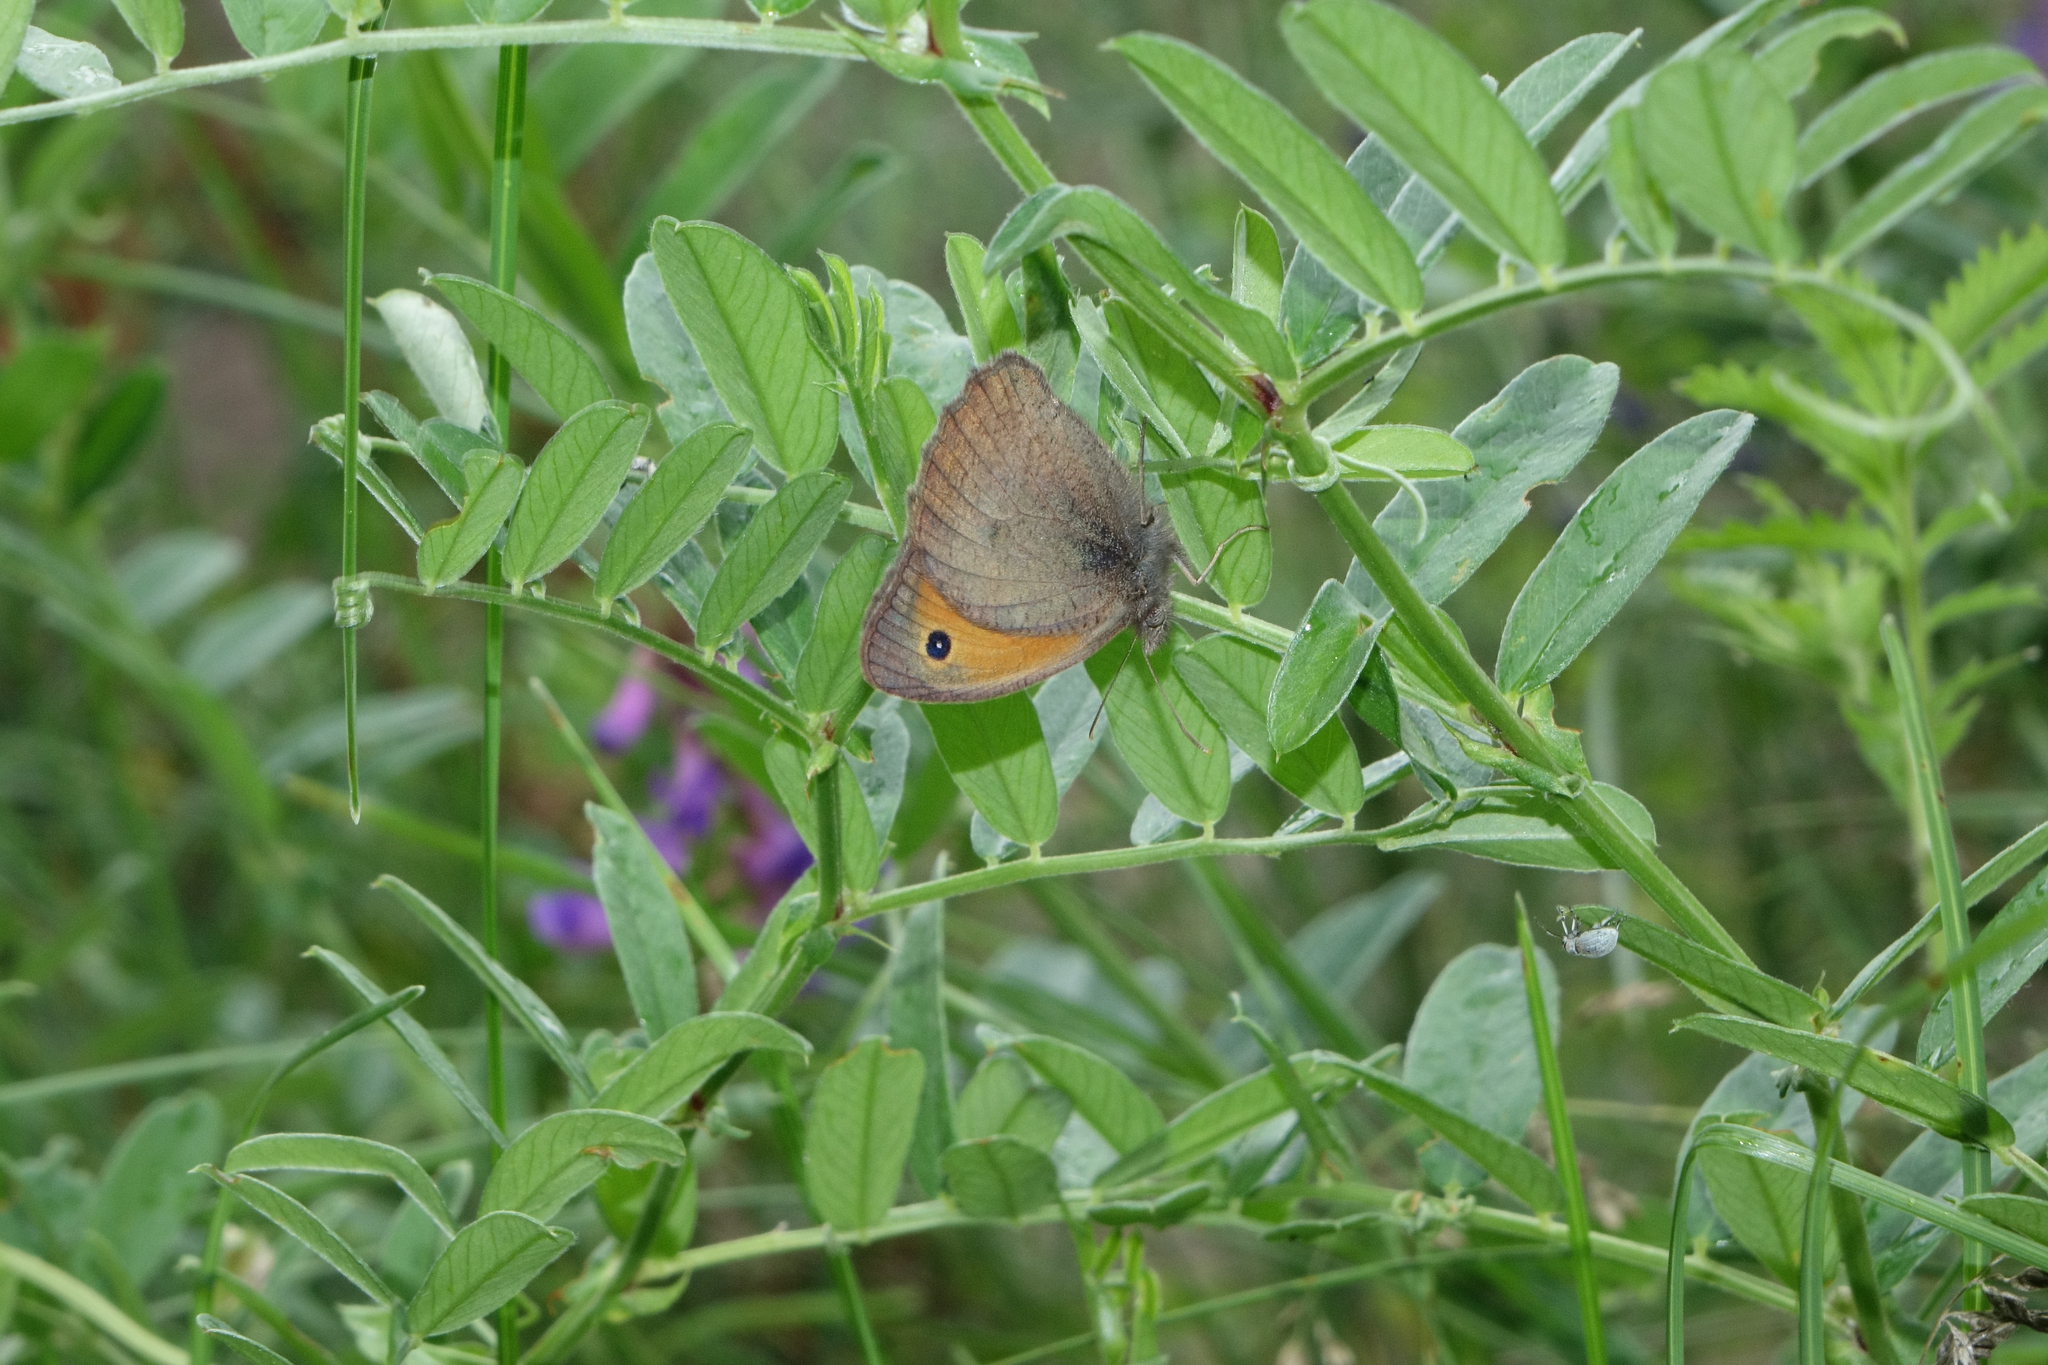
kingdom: Plantae
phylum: Tracheophyta
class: Magnoliopsida
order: Fabales
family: Fabaceae
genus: Vicia
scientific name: Vicia amoena
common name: Cheder ebs
